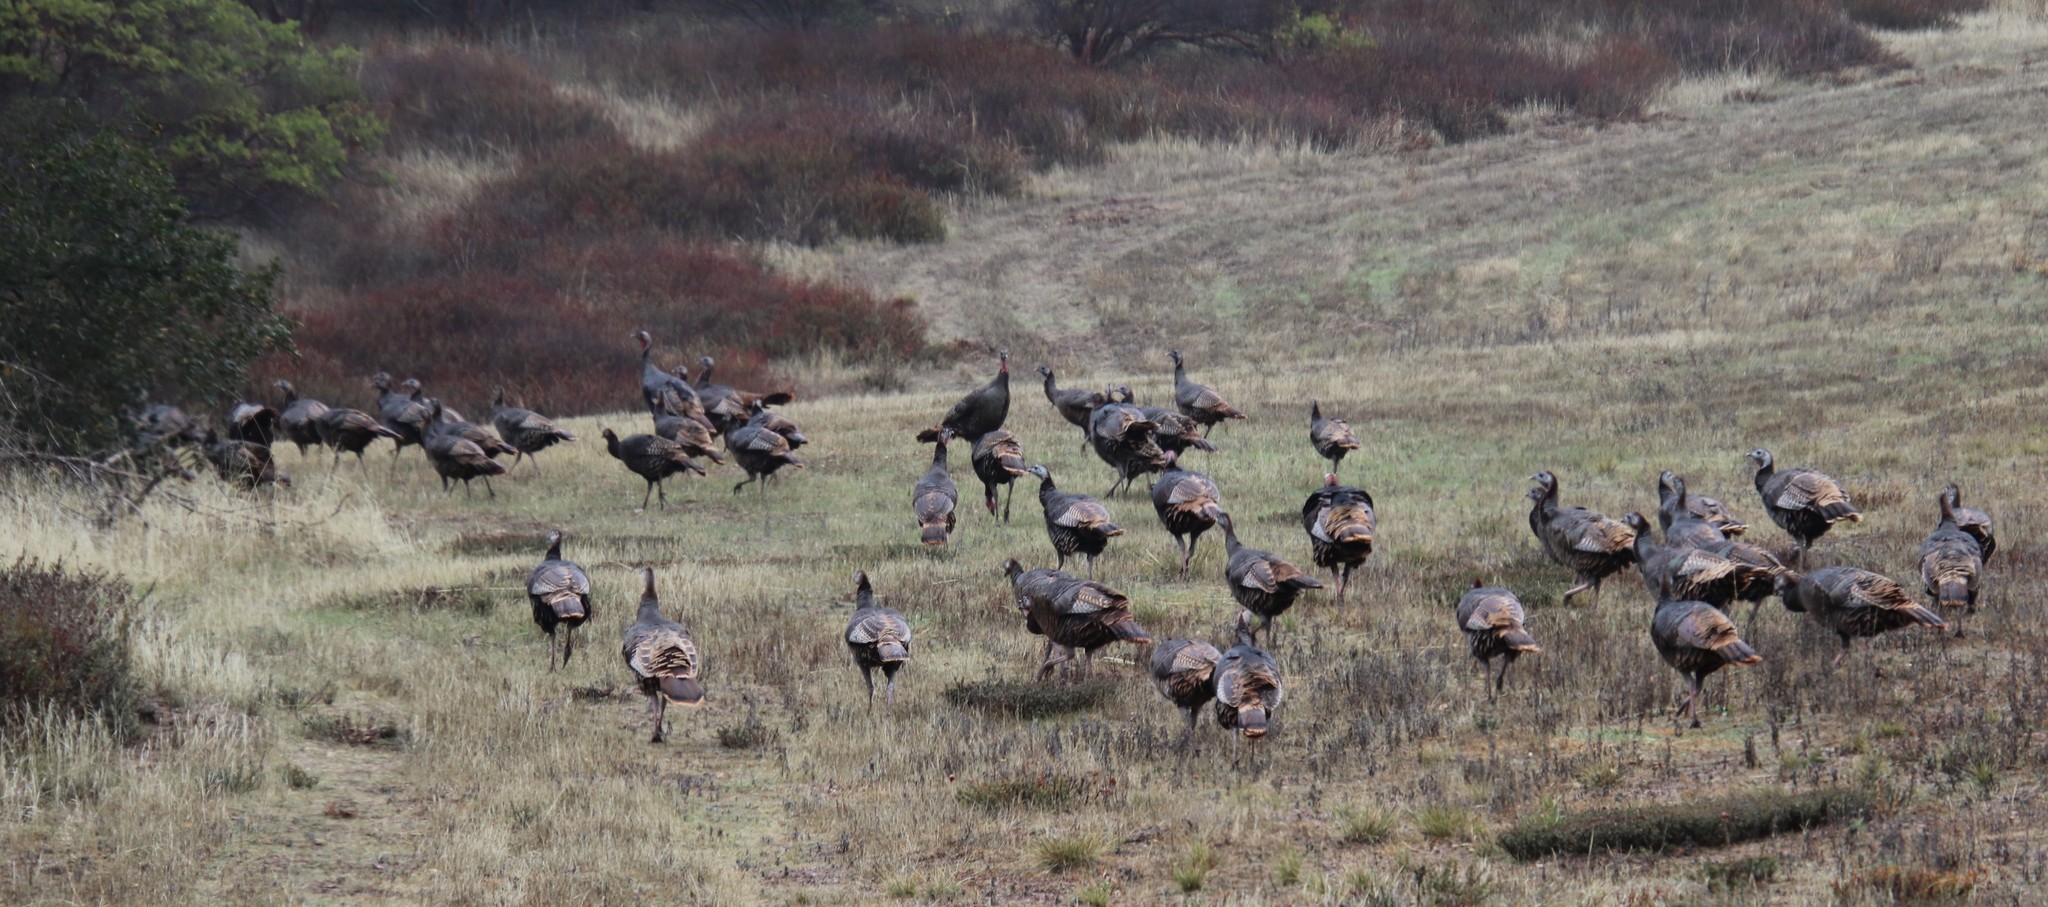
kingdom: Animalia
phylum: Chordata
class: Aves
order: Galliformes
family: Phasianidae
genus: Meleagris
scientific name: Meleagris gallopavo
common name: Wild turkey
